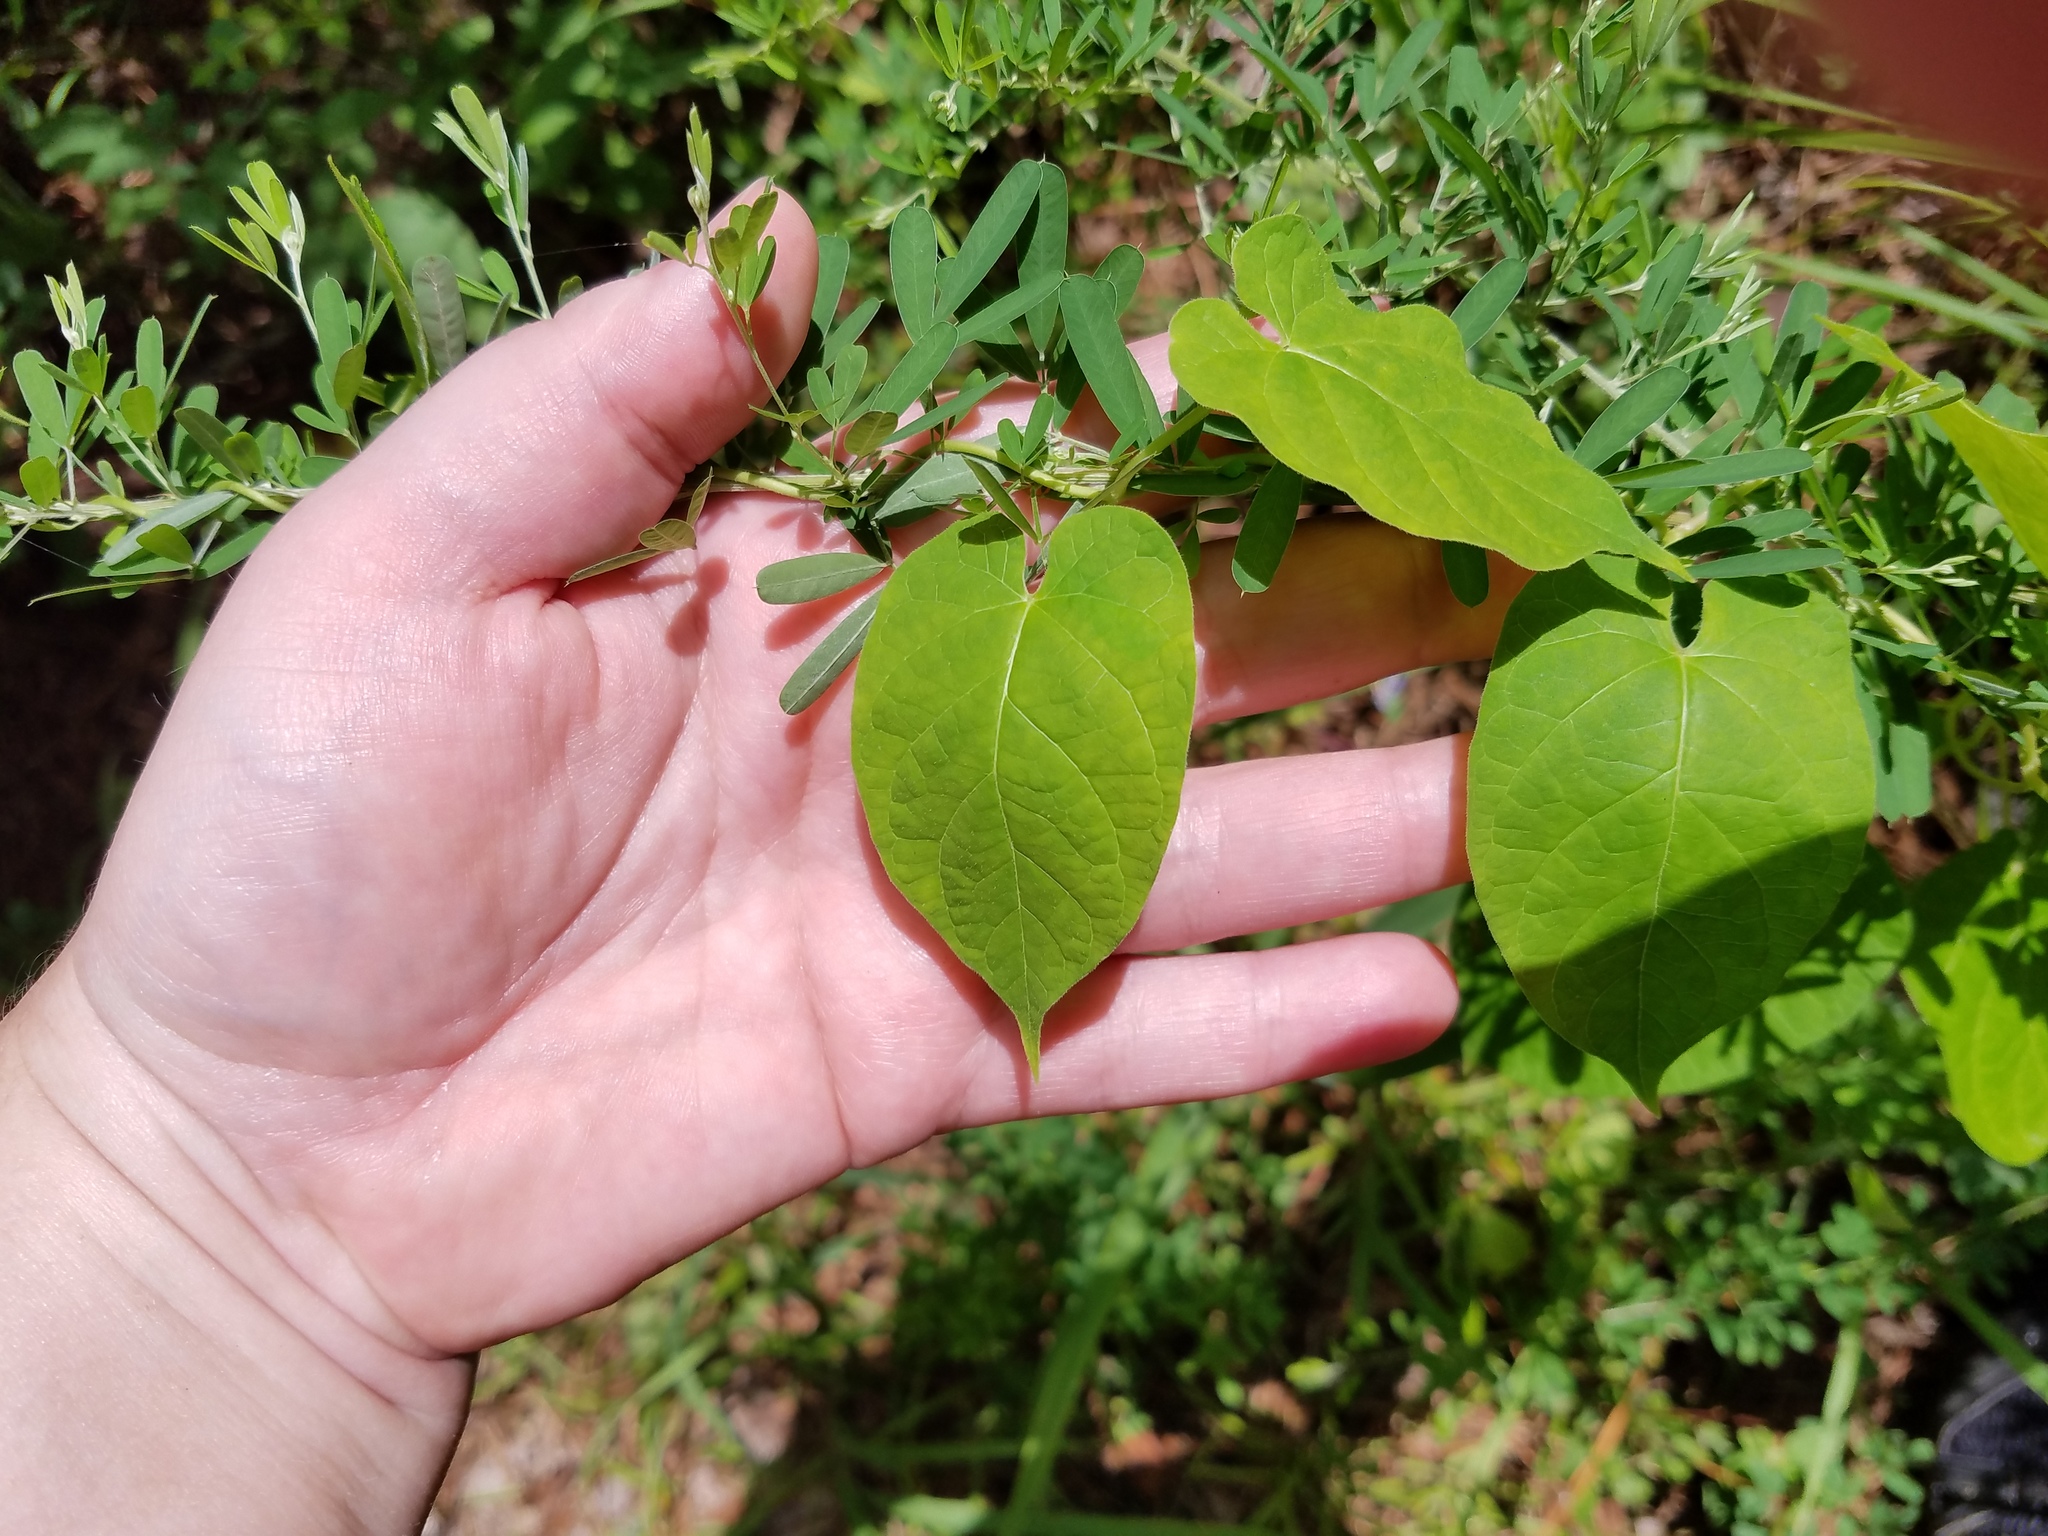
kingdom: Plantae
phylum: Tracheophyta
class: Magnoliopsida
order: Gentianales
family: Apocynaceae
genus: Gonolobus
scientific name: Gonolobus suberosus
